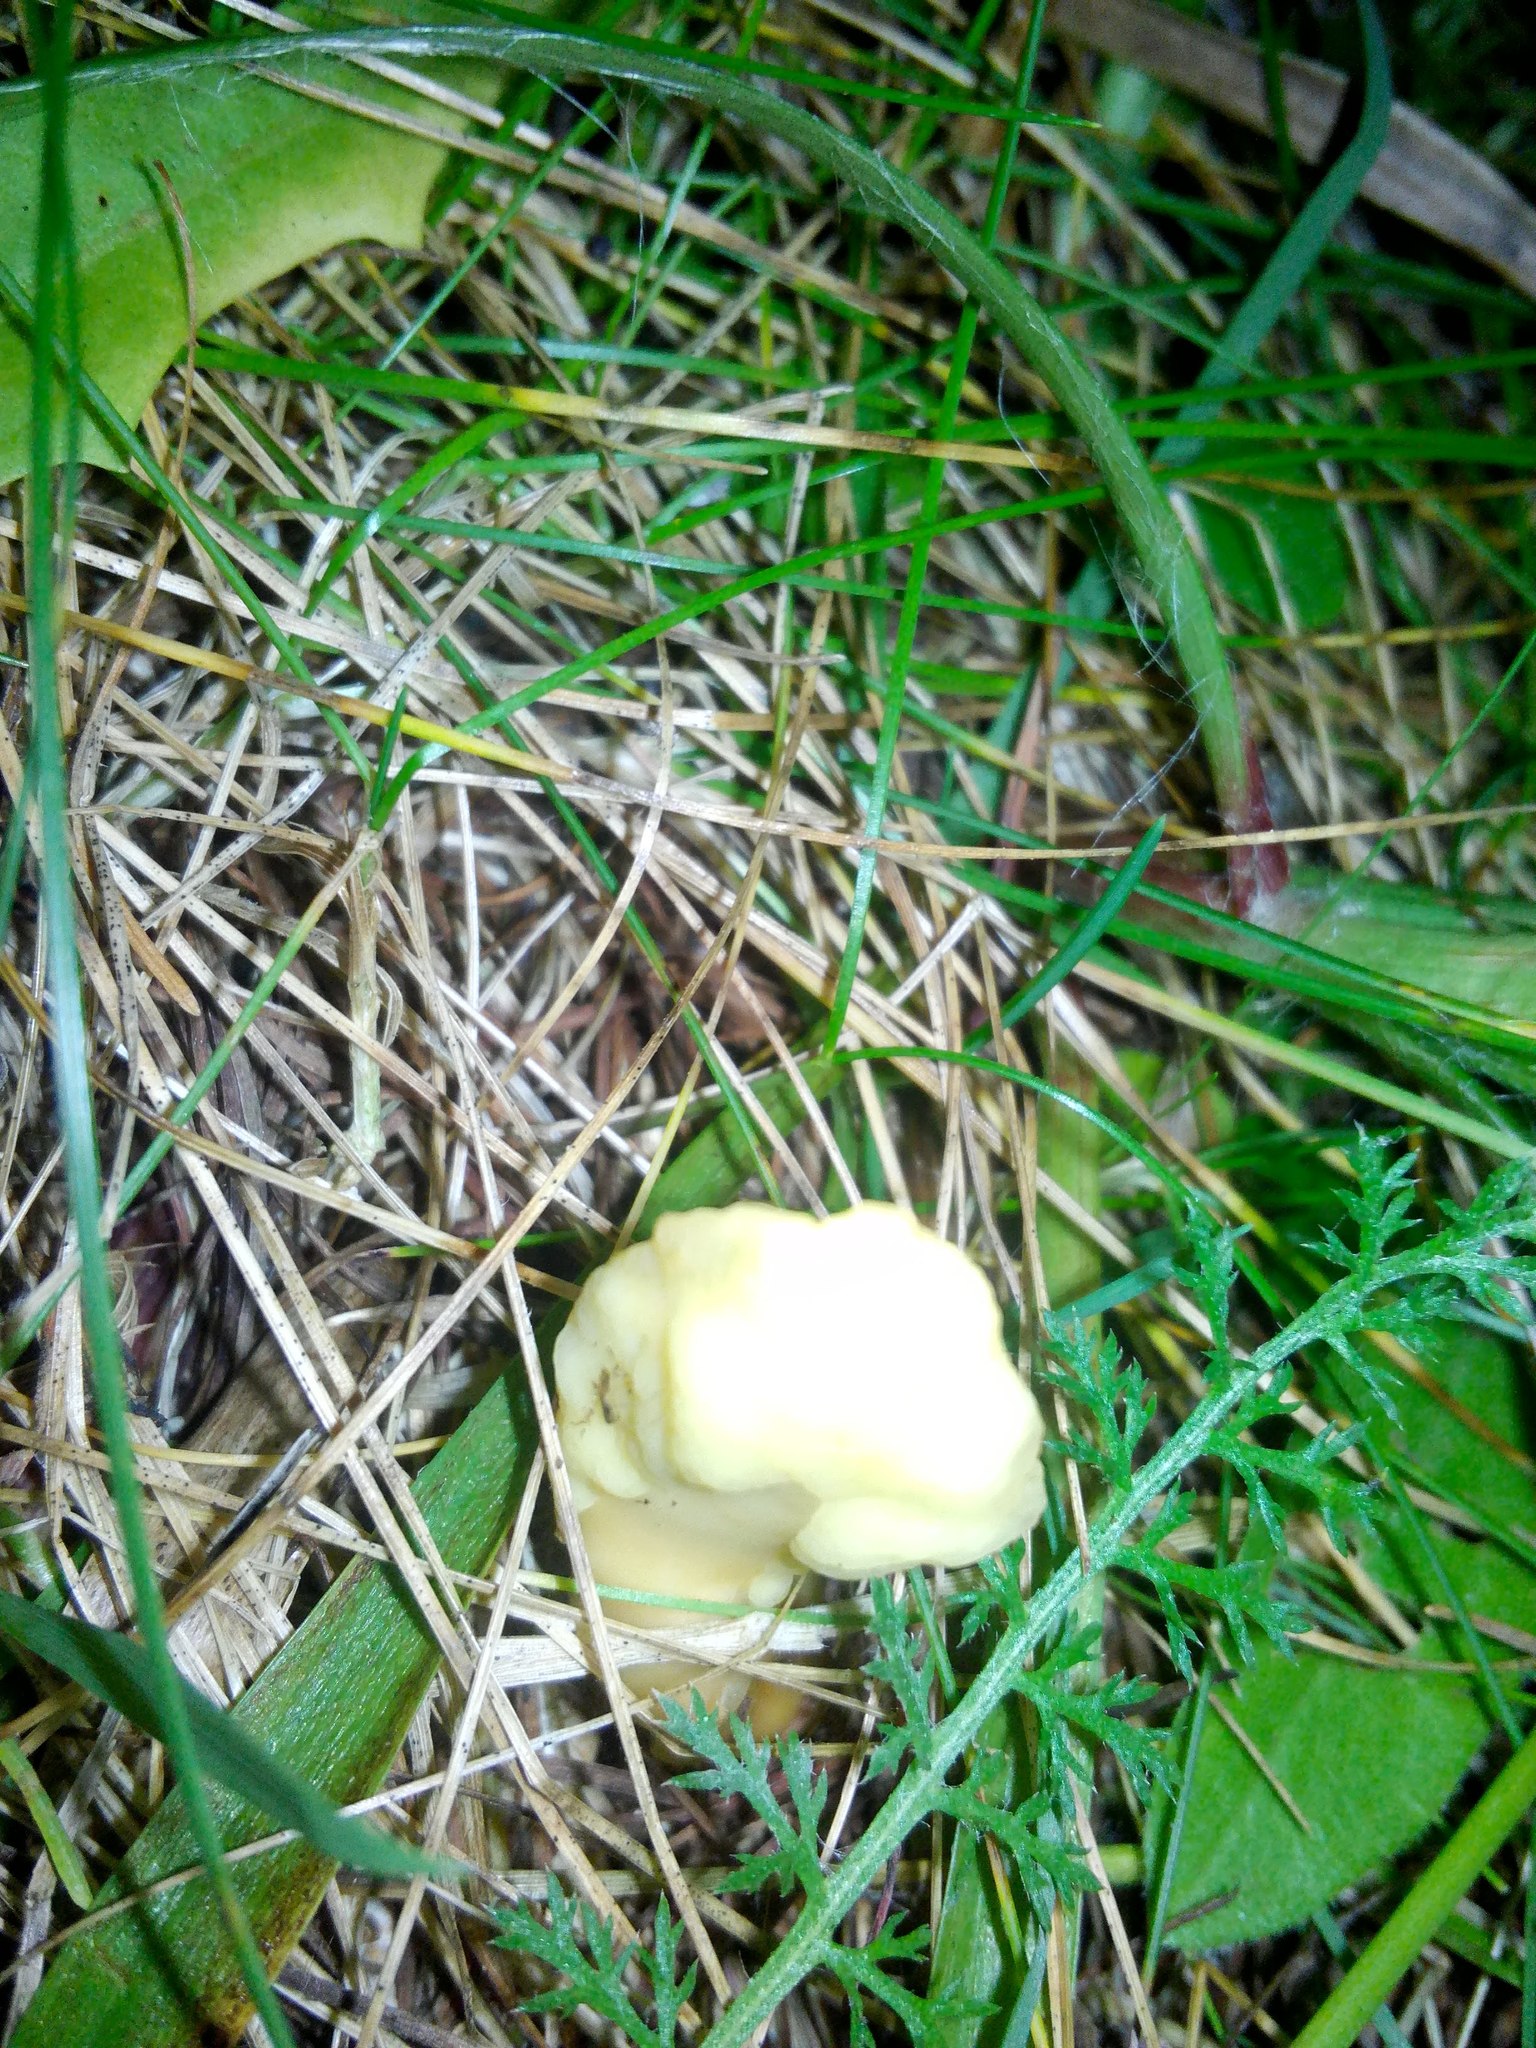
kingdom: Fungi
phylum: Ascomycota
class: Leotiomycetes
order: Rhytismatales
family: Cudoniaceae
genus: Spathularia
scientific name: Spathularia flavida
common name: Yellow fan
